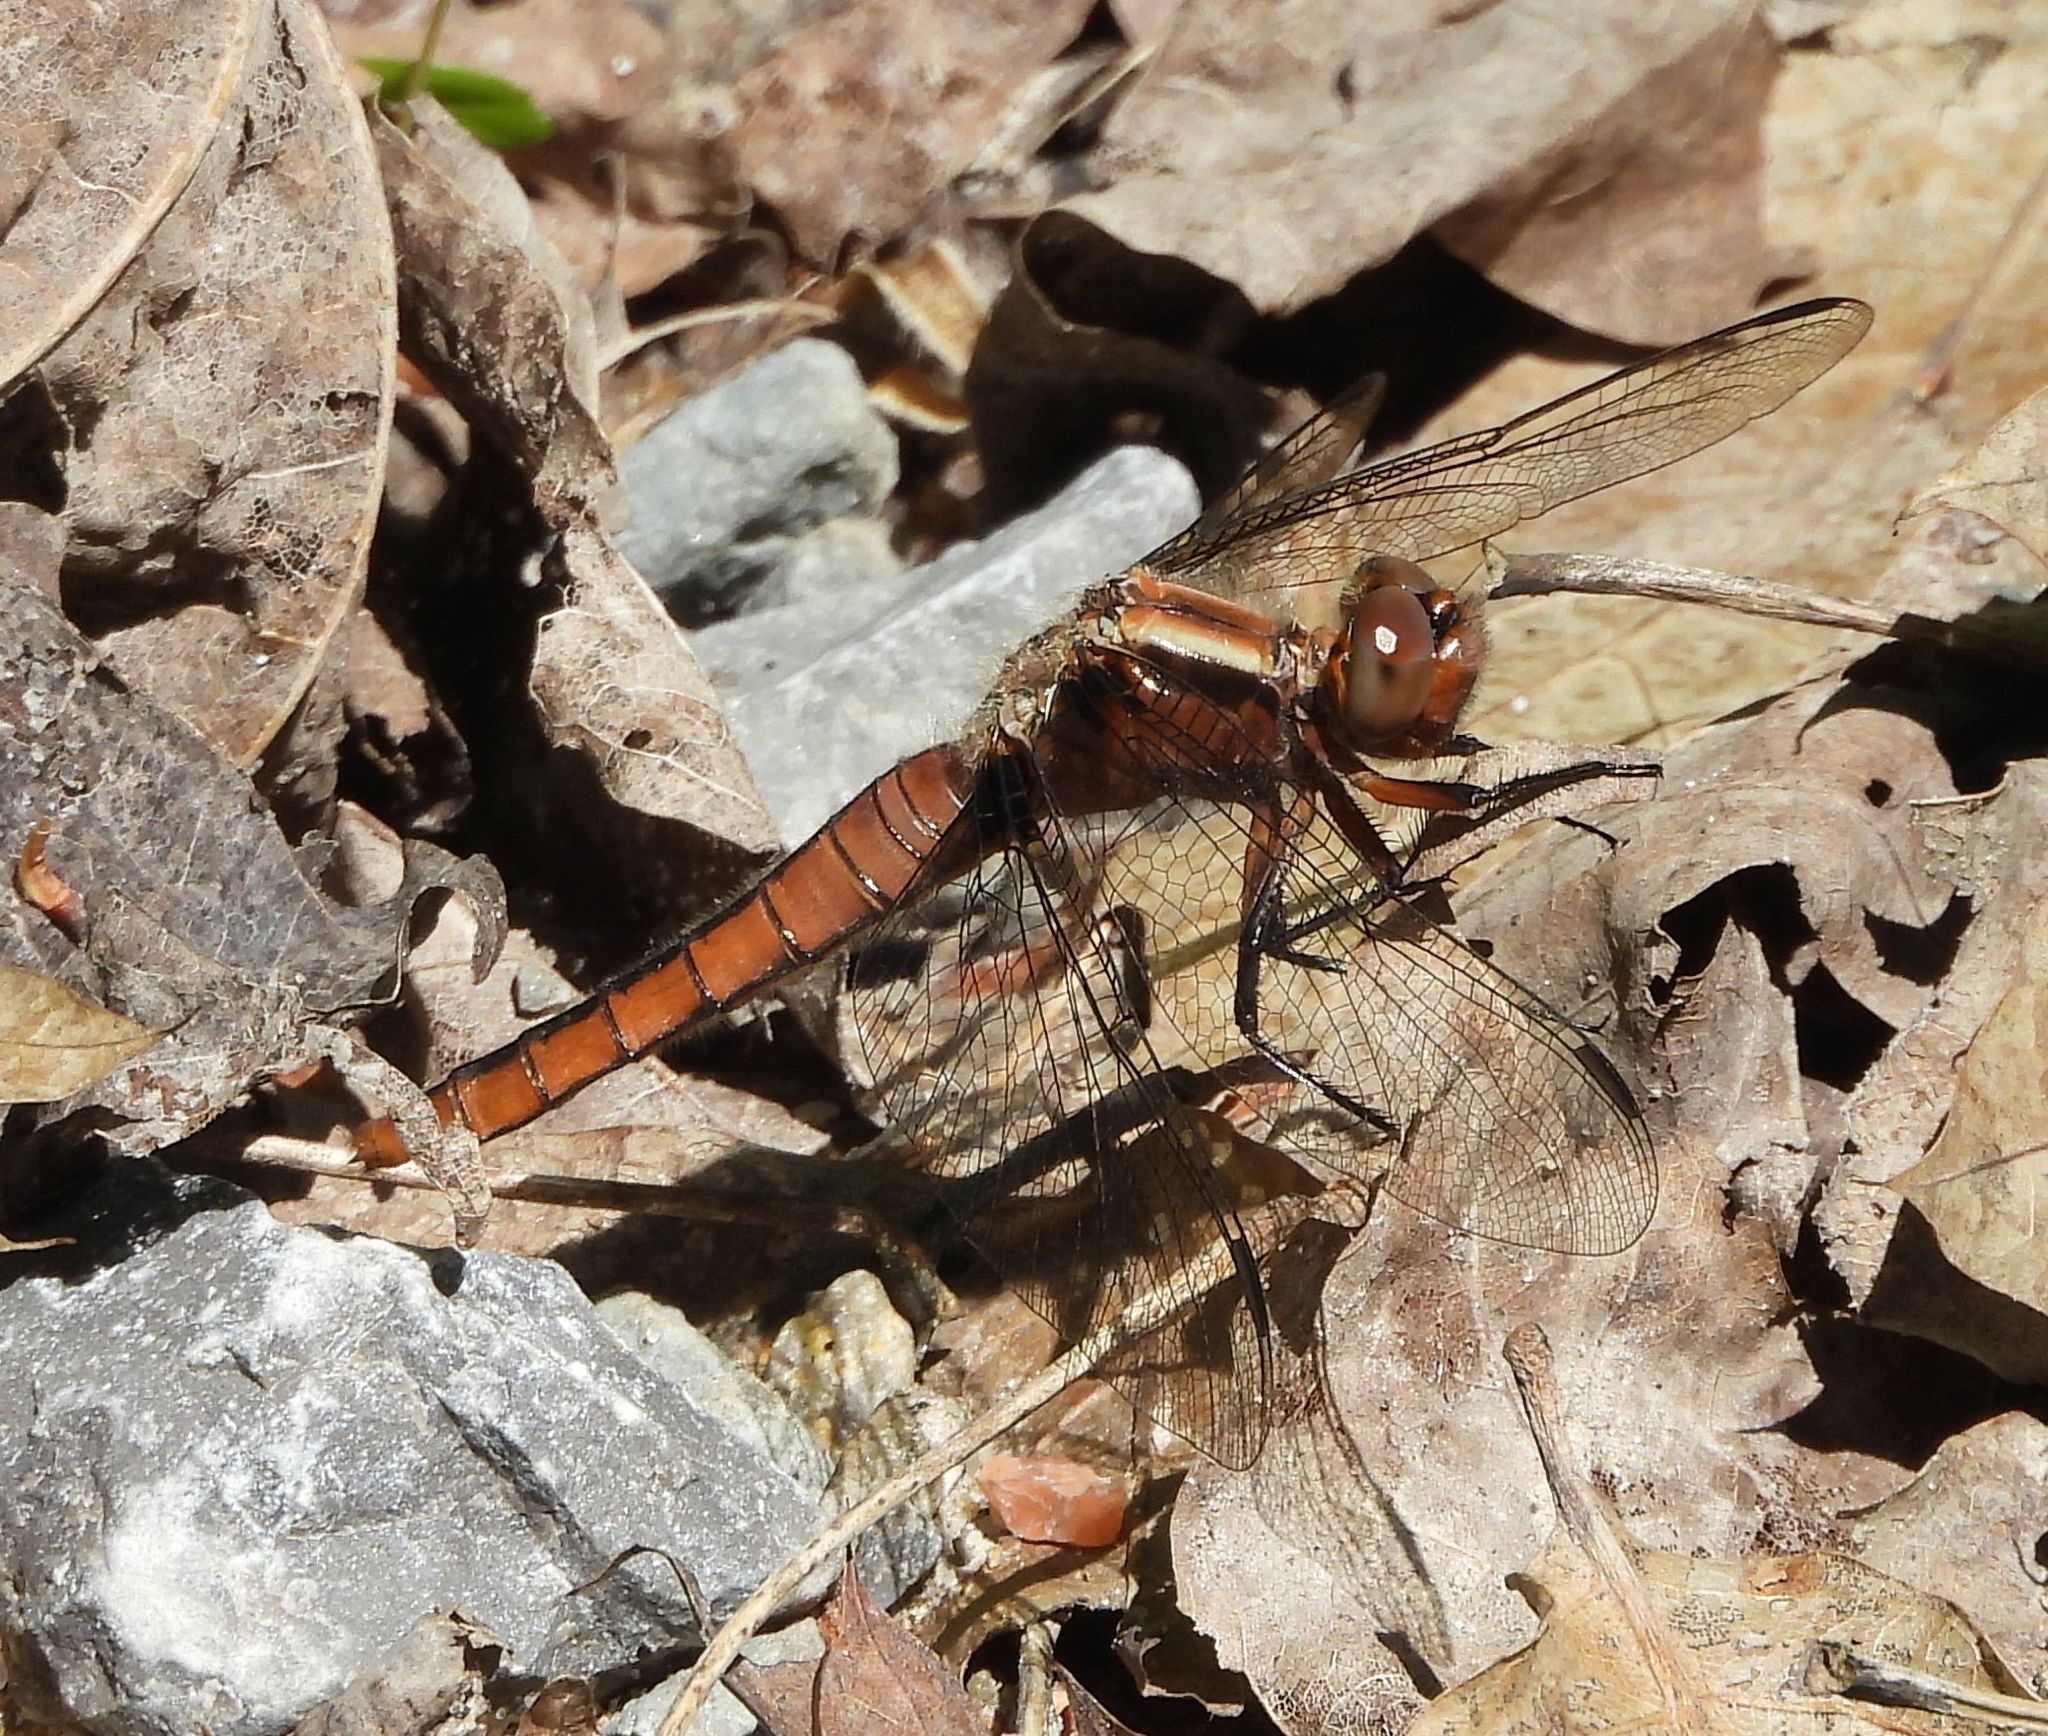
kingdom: Animalia
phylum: Arthropoda
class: Insecta
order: Odonata
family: Libellulidae
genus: Ladona
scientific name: Ladona julia
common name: Chalk-fronted corporal
